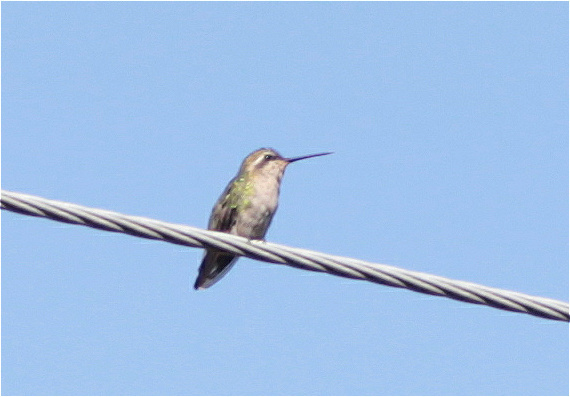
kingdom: Animalia
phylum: Chordata
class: Aves
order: Apodiformes
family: Trochilidae
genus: Chlorostilbon
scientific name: Chlorostilbon poortmani
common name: Short-tailed emerald
